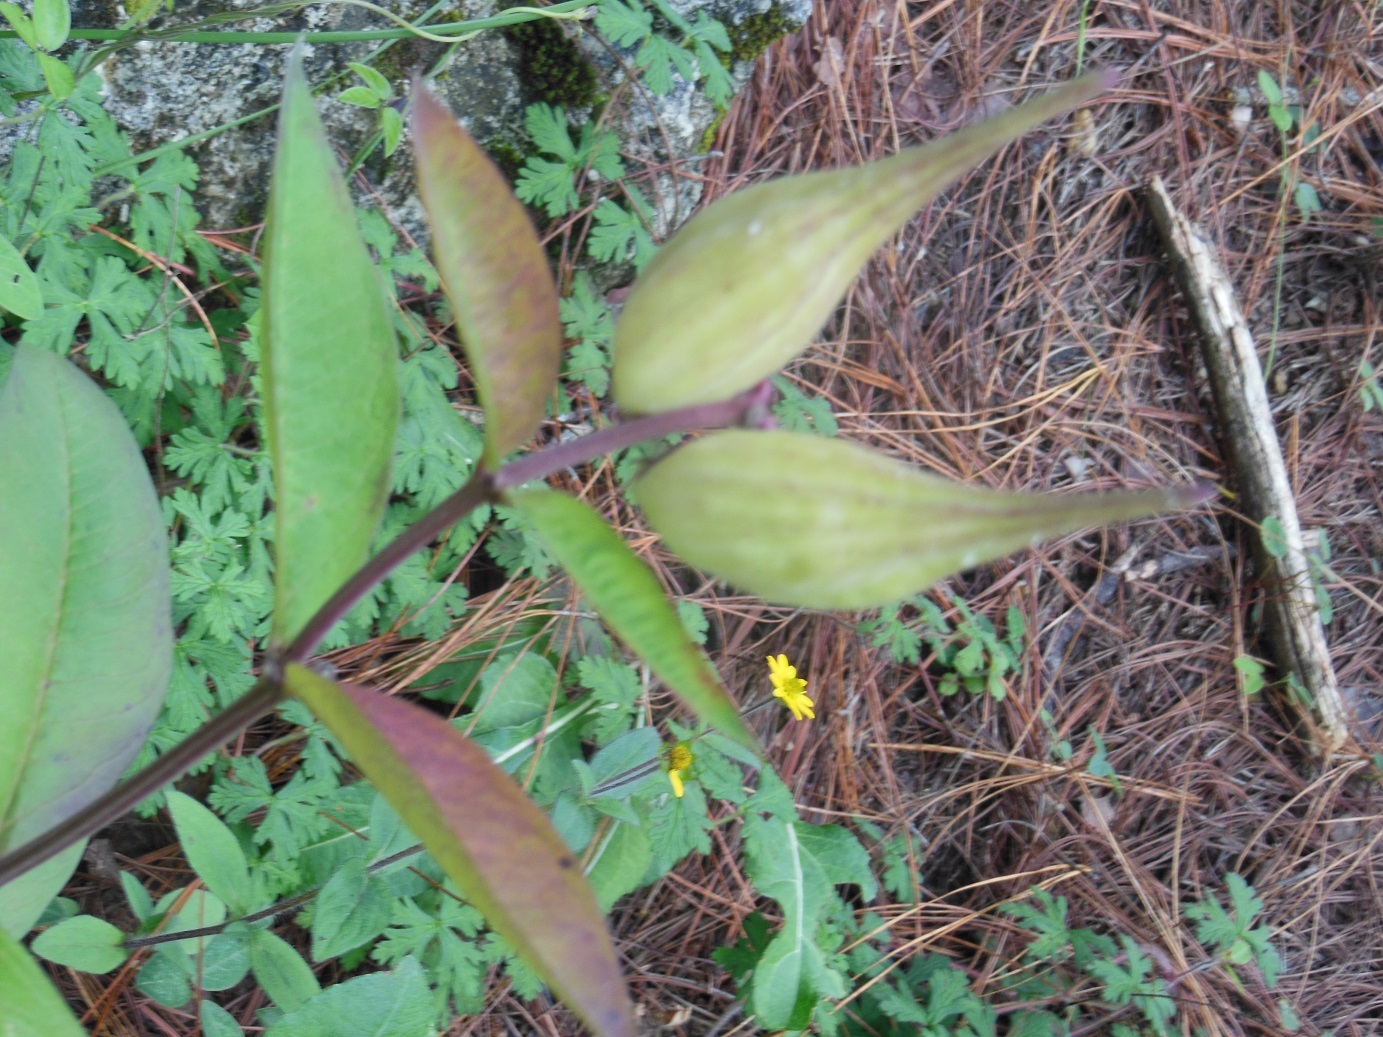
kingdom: Plantae
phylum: Tracheophyta
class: Magnoliopsida
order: Gentianales
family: Apocynaceae
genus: Asclepias
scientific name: Asclepias similis
